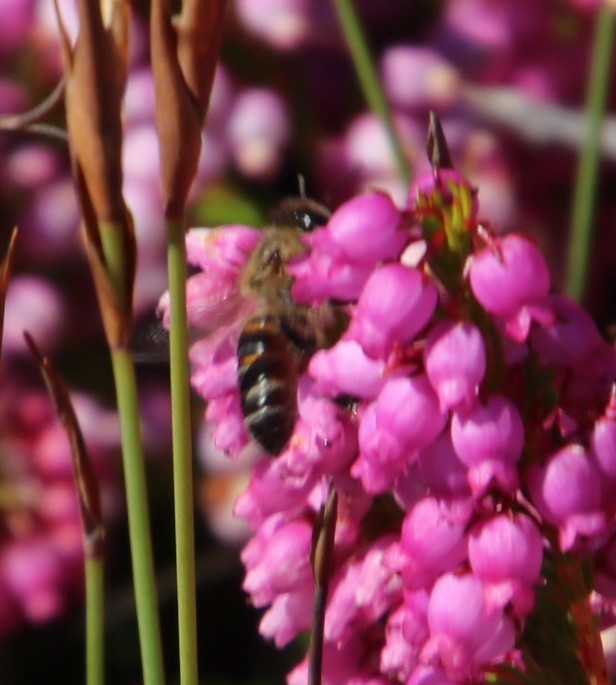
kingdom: Plantae
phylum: Tracheophyta
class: Magnoliopsida
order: Ericales
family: Ericaceae
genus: Erica
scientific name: Erica laeta
